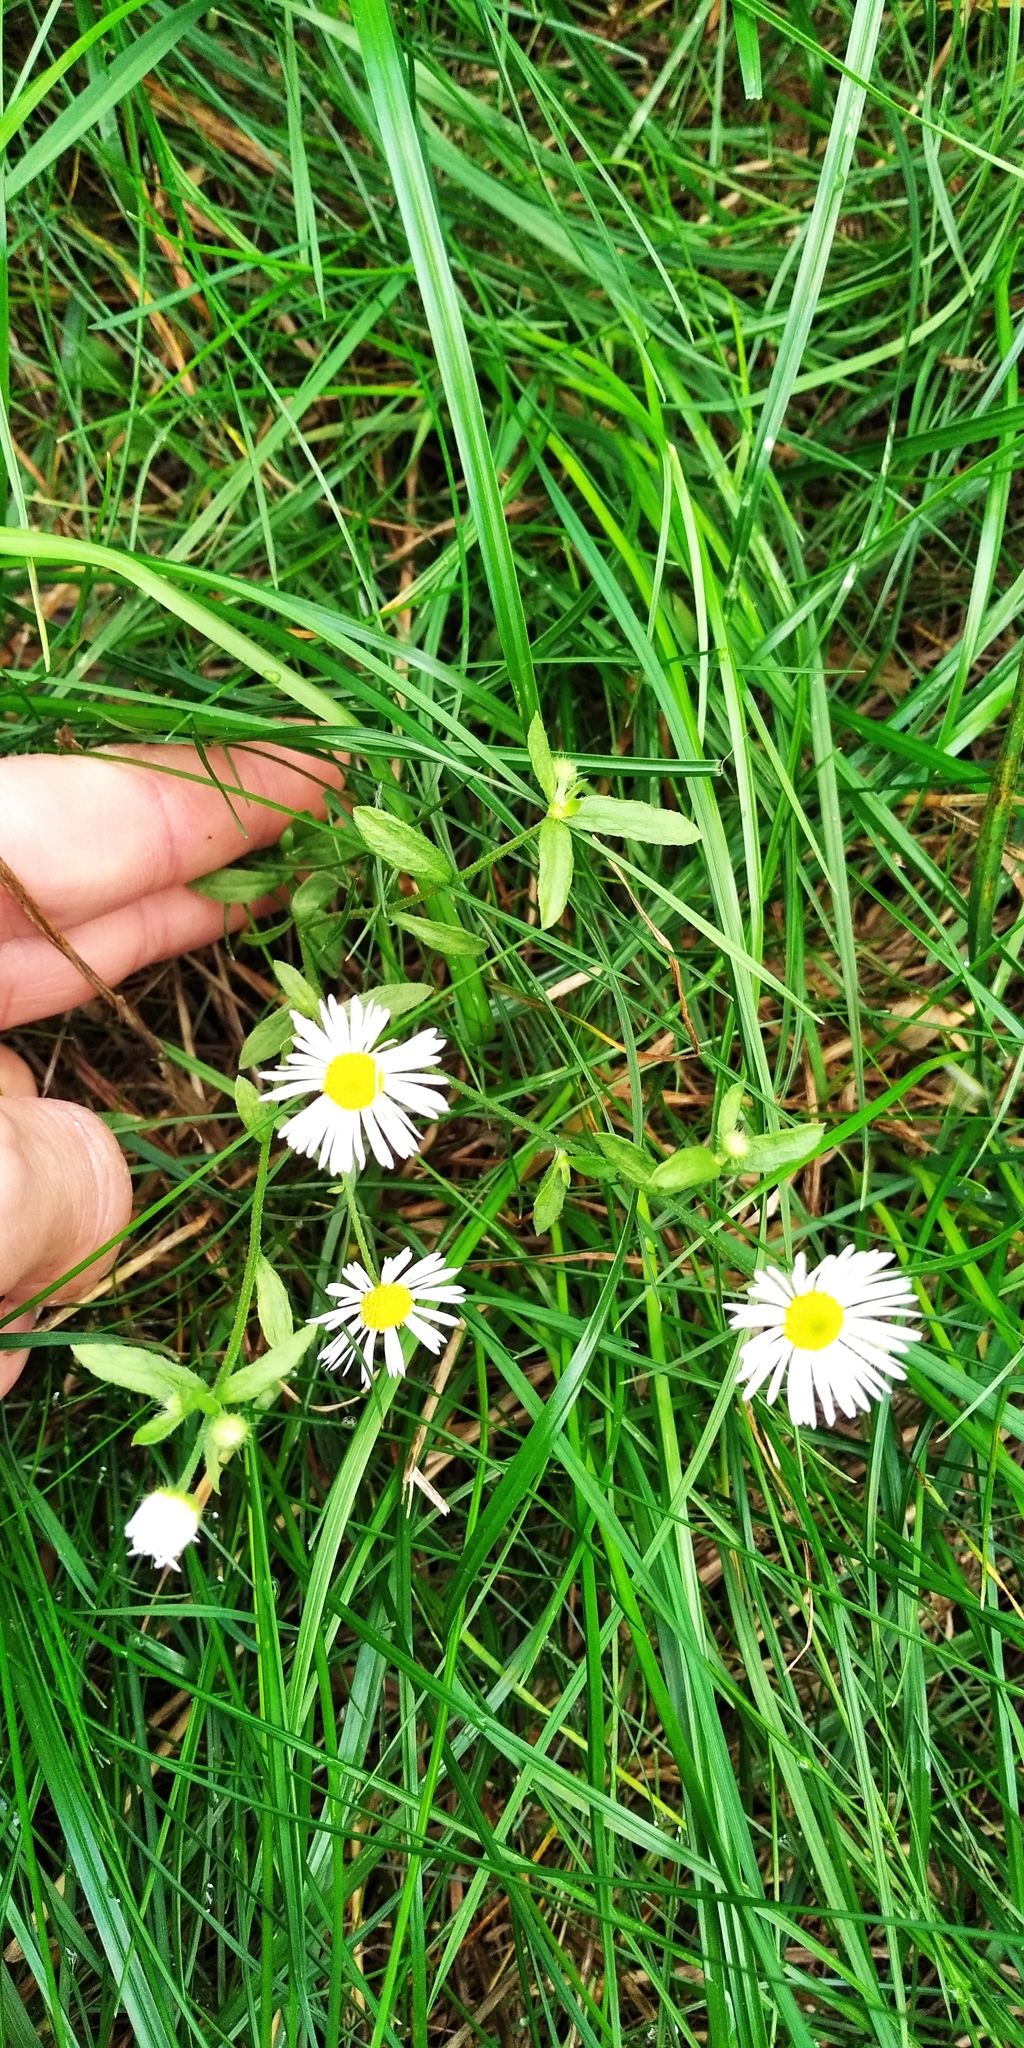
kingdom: Plantae
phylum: Tracheophyta
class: Magnoliopsida
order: Asterales
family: Asteraceae
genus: Erigeron
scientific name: Erigeron annuus
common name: Tall fleabane
